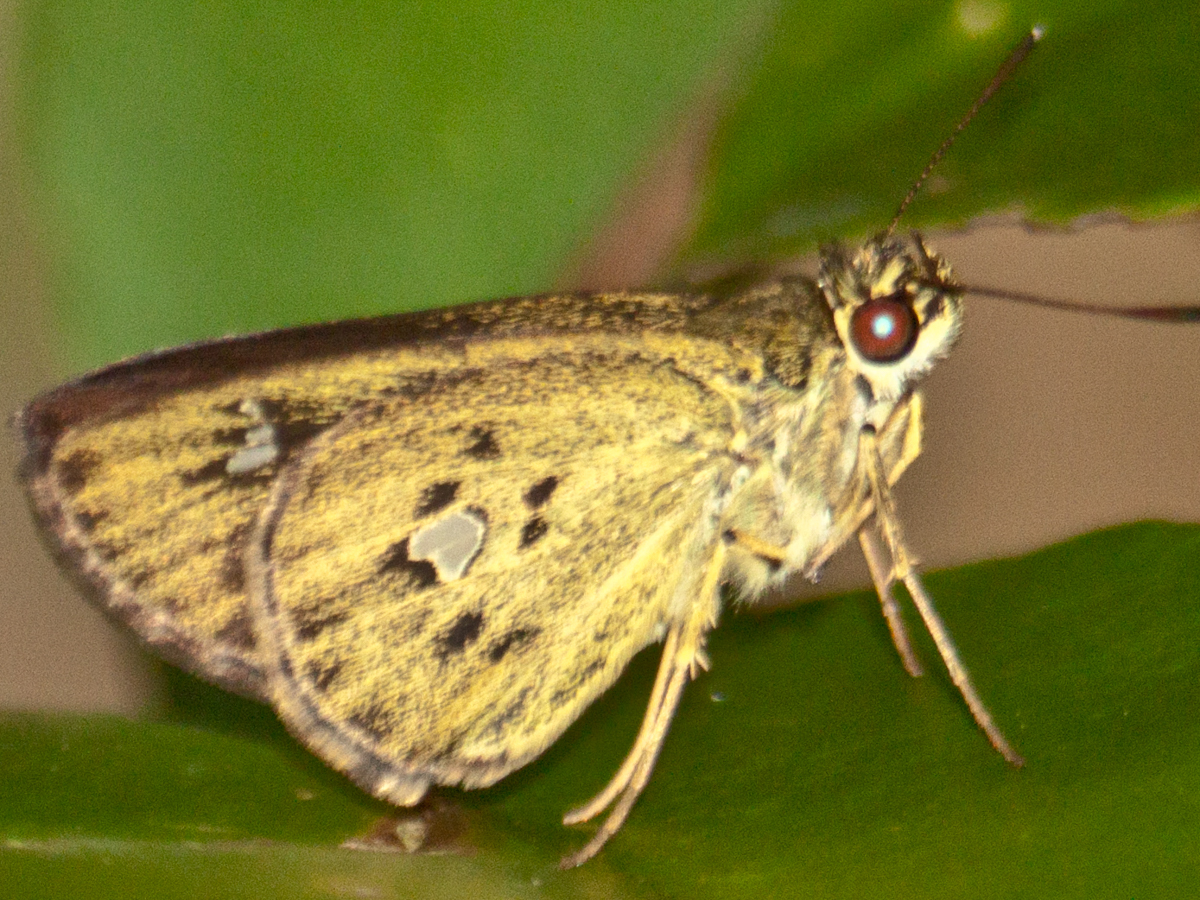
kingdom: Animalia
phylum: Arthropoda
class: Insecta
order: Lepidoptera
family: Hesperiidae
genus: Scobura
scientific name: Scobura phiditia
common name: Malay forest bob
